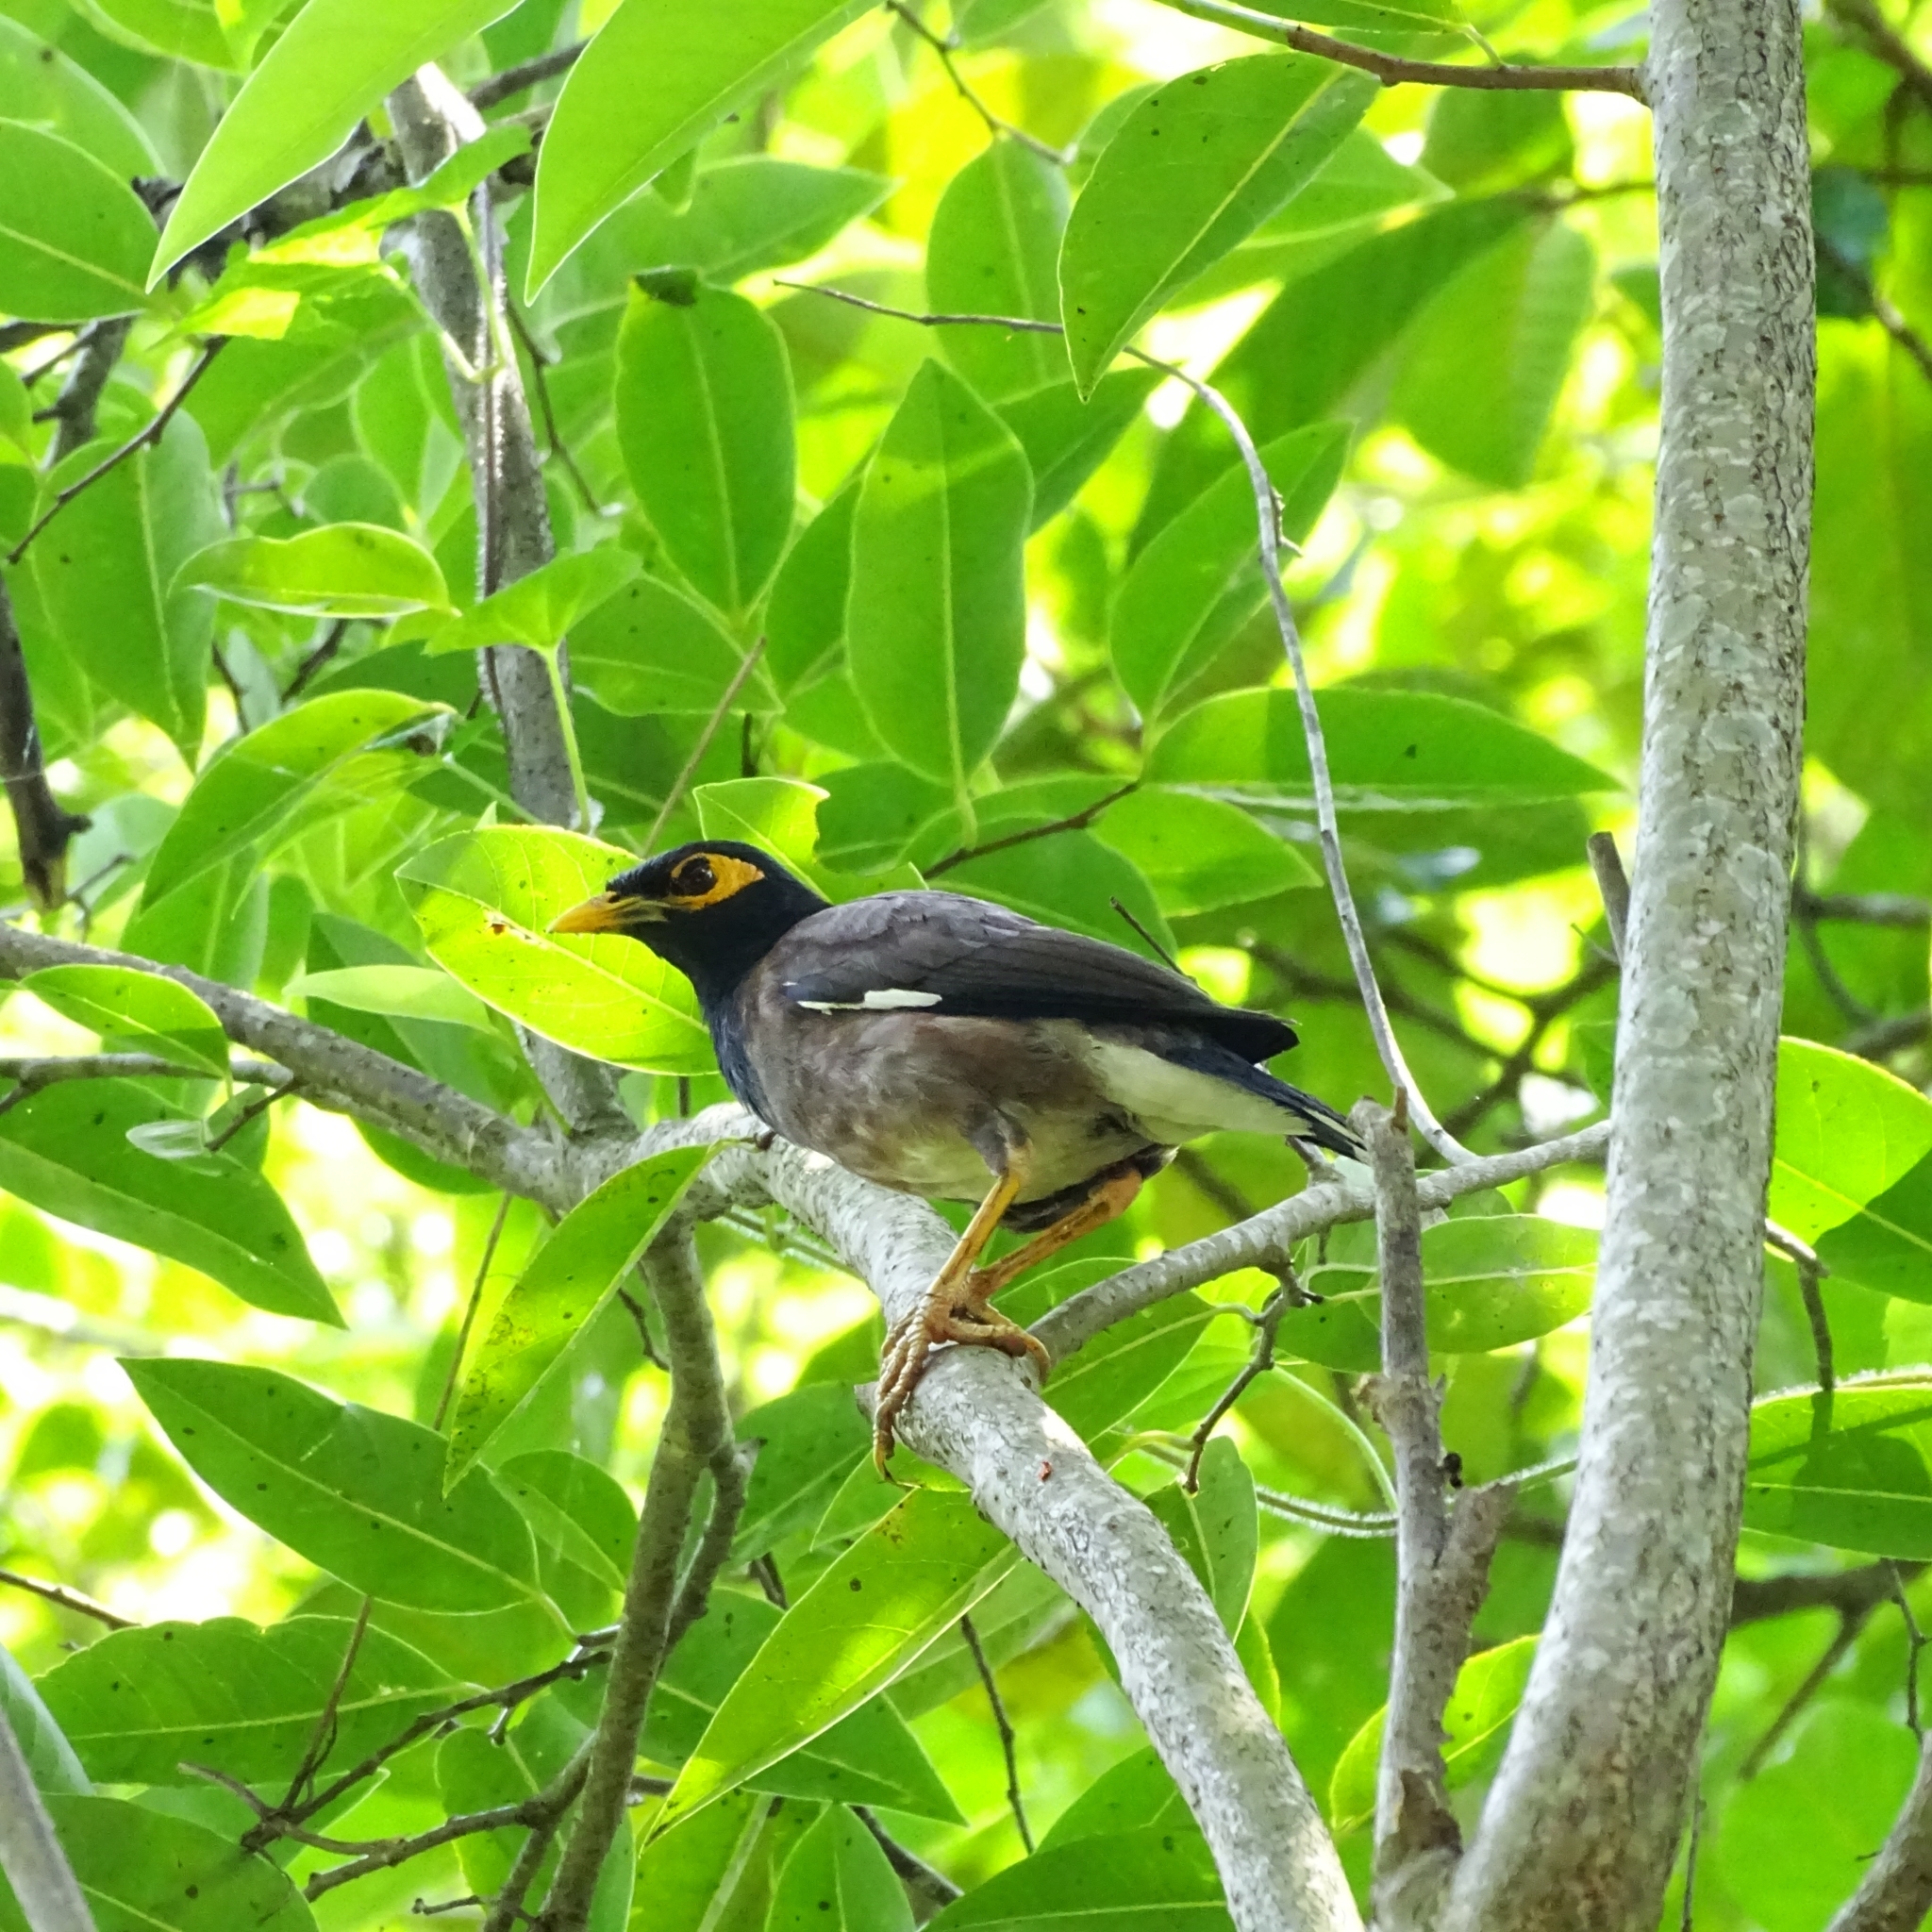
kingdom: Animalia
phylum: Chordata
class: Aves
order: Passeriformes
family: Sturnidae
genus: Acridotheres
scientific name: Acridotheres tristis
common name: Common myna
